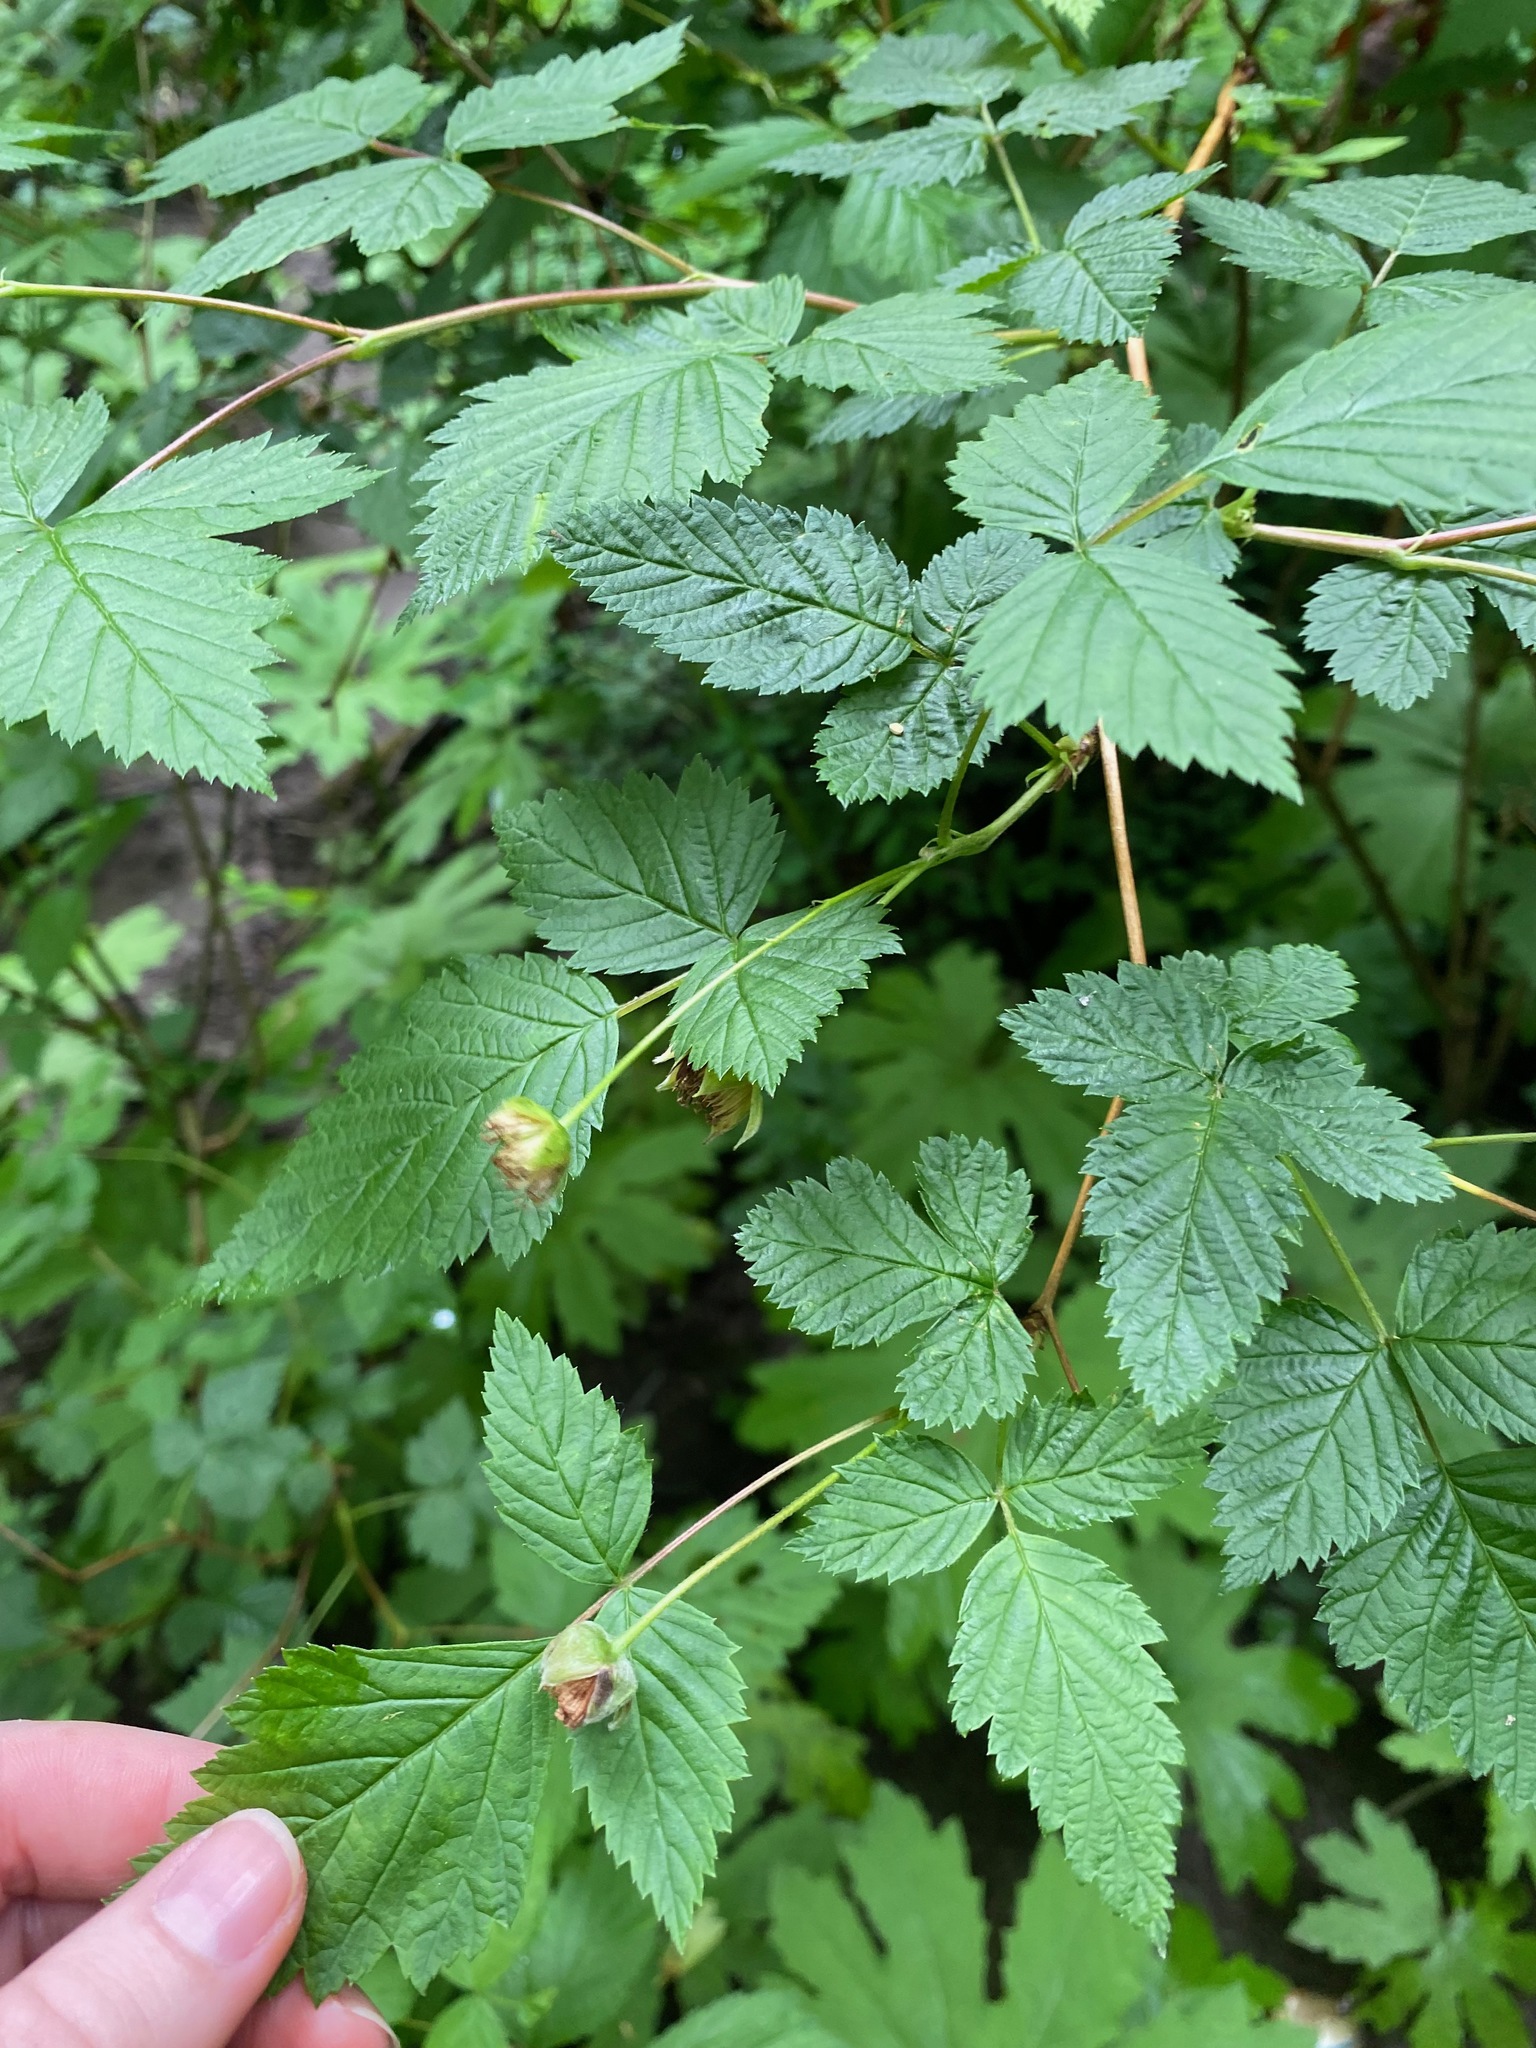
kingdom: Plantae
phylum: Tracheophyta
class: Magnoliopsida
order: Rosales
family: Rosaceae
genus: Rubus
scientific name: Rubus spectabilis
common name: Salmonberry
